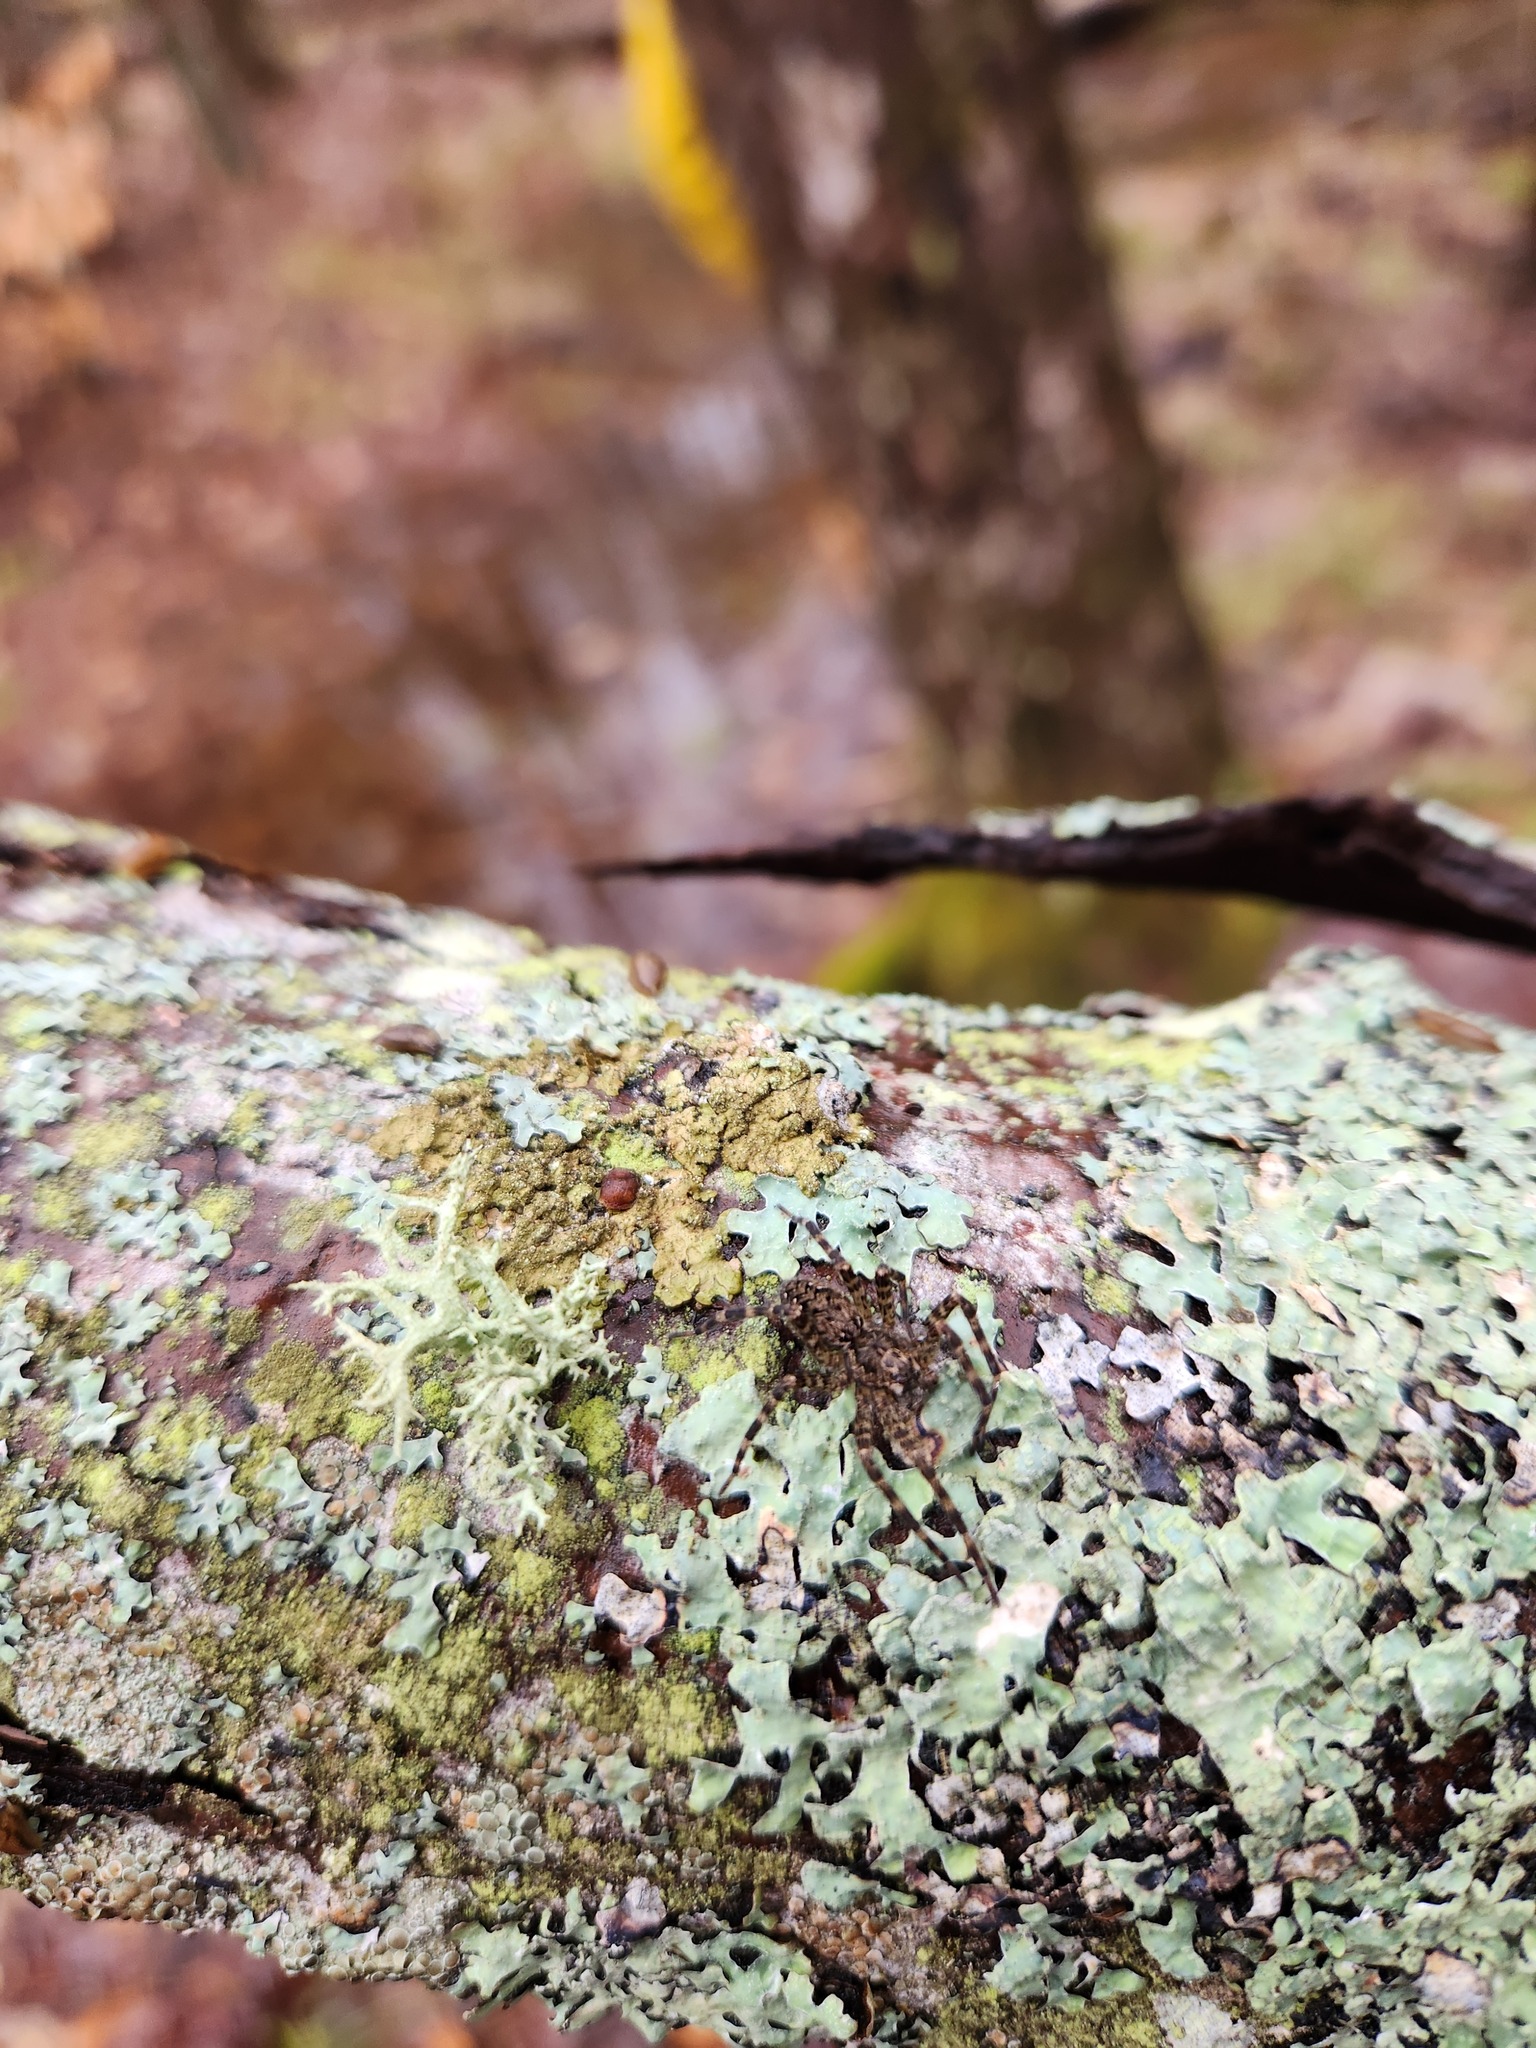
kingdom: Animalia
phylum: Arthropoda
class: Arachnida
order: Araneae
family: Pisauridae
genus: Dolomedes
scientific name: Dolomedes tenebrosus
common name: Dark fishing spider
